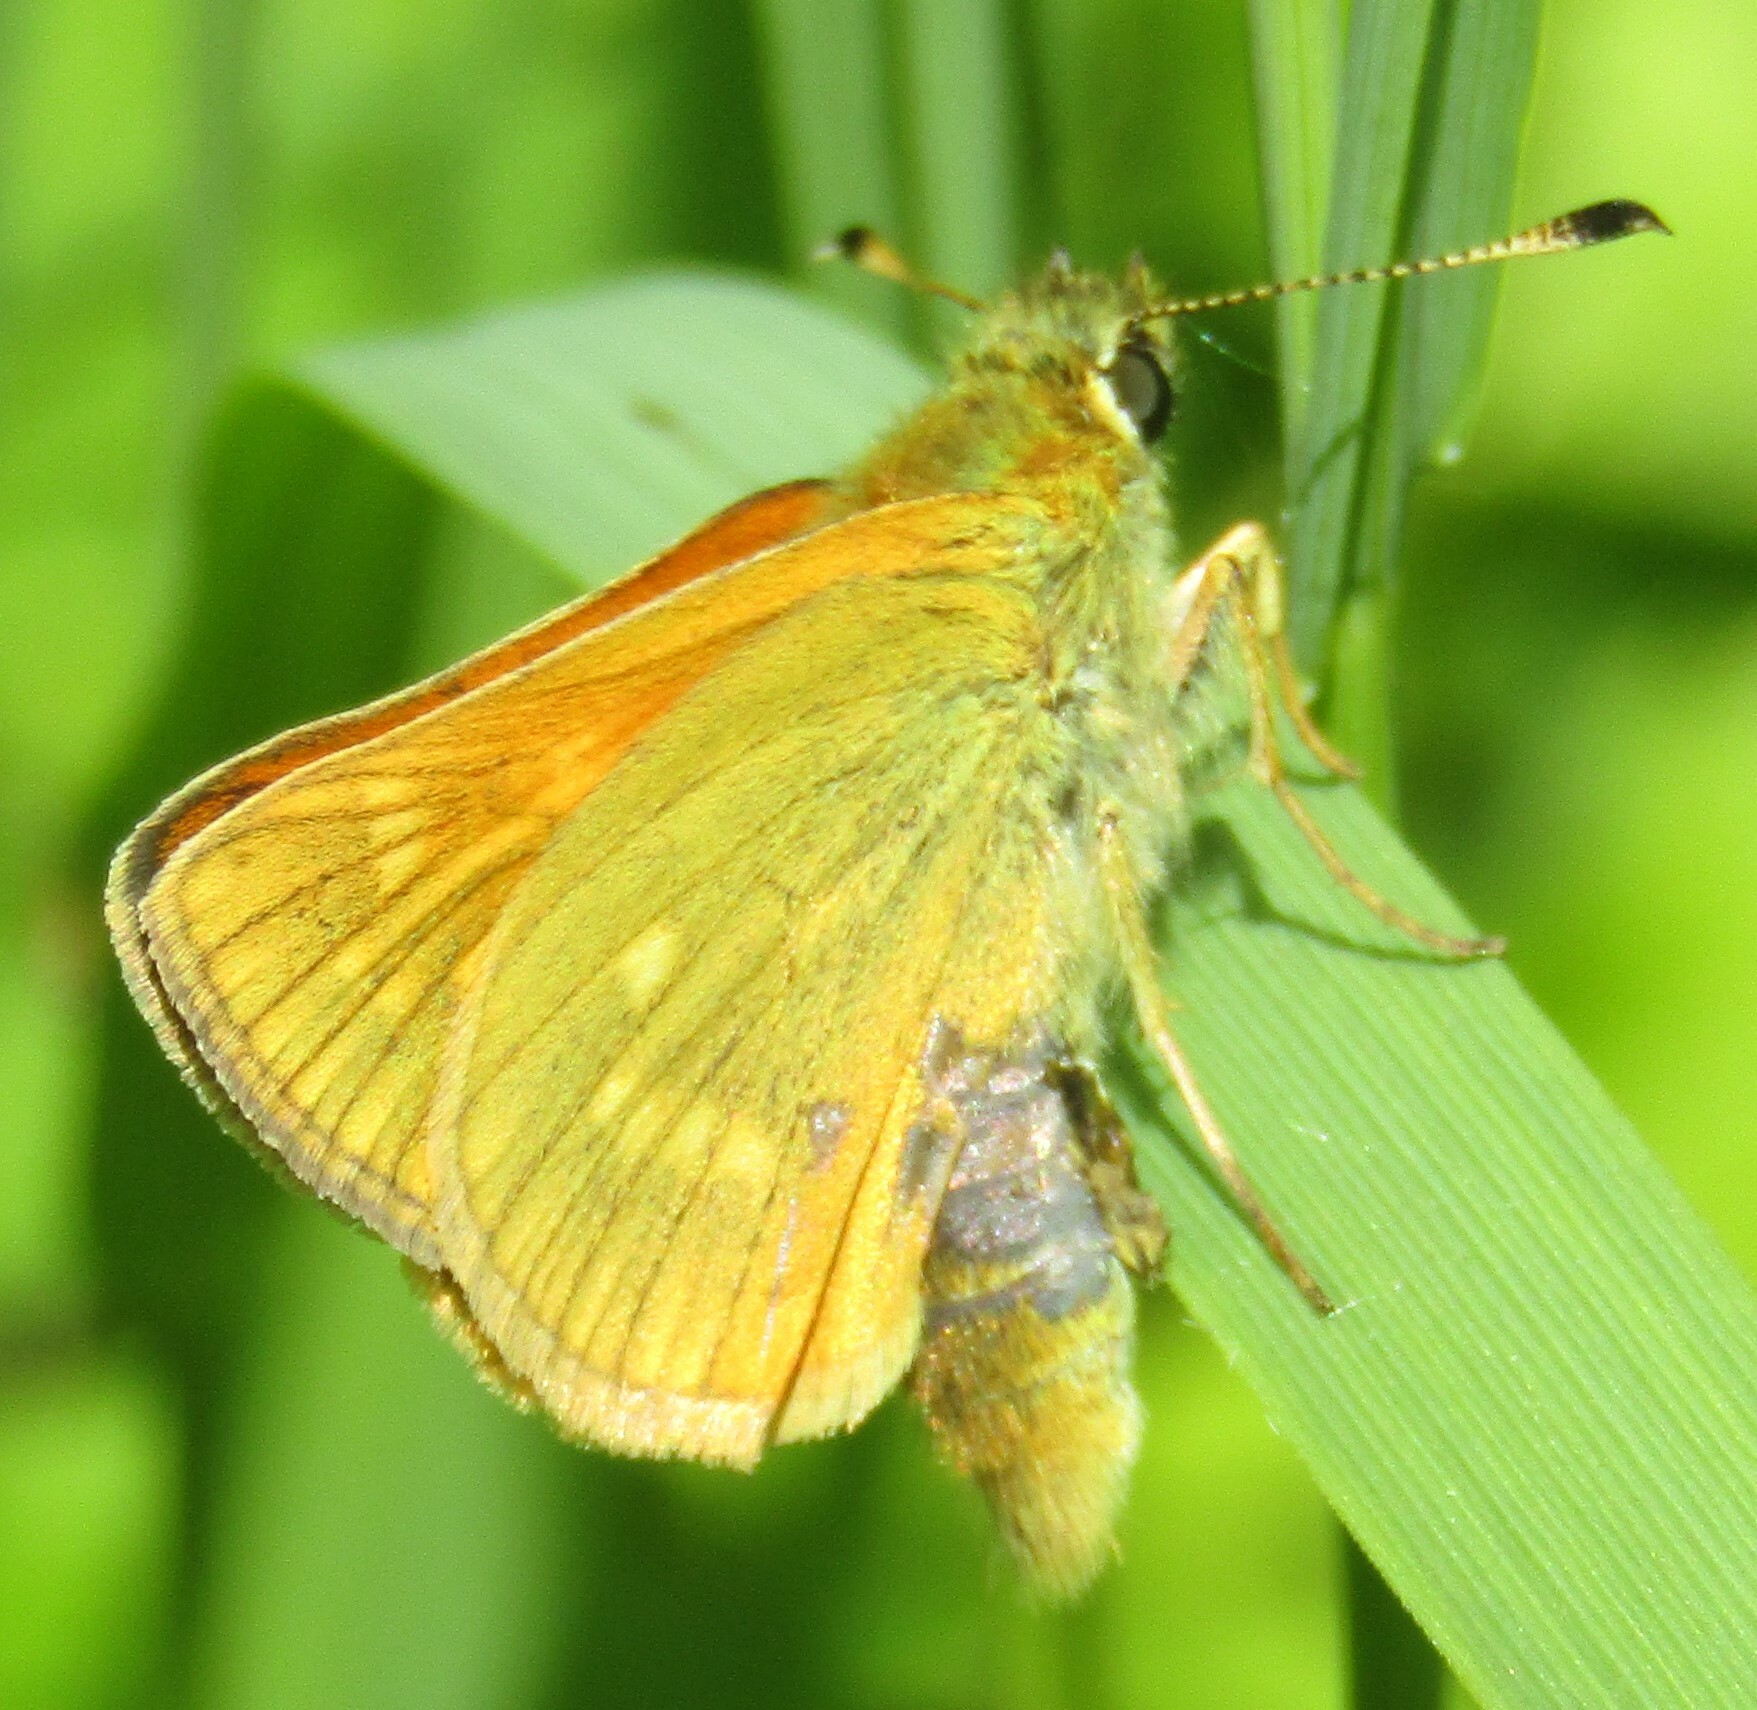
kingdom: Animalia
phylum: Arthropoda
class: Insecta
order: Lepidoptera
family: Hesperiidae
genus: Ochlodes
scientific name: Ochlodes venata
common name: Large skipper
